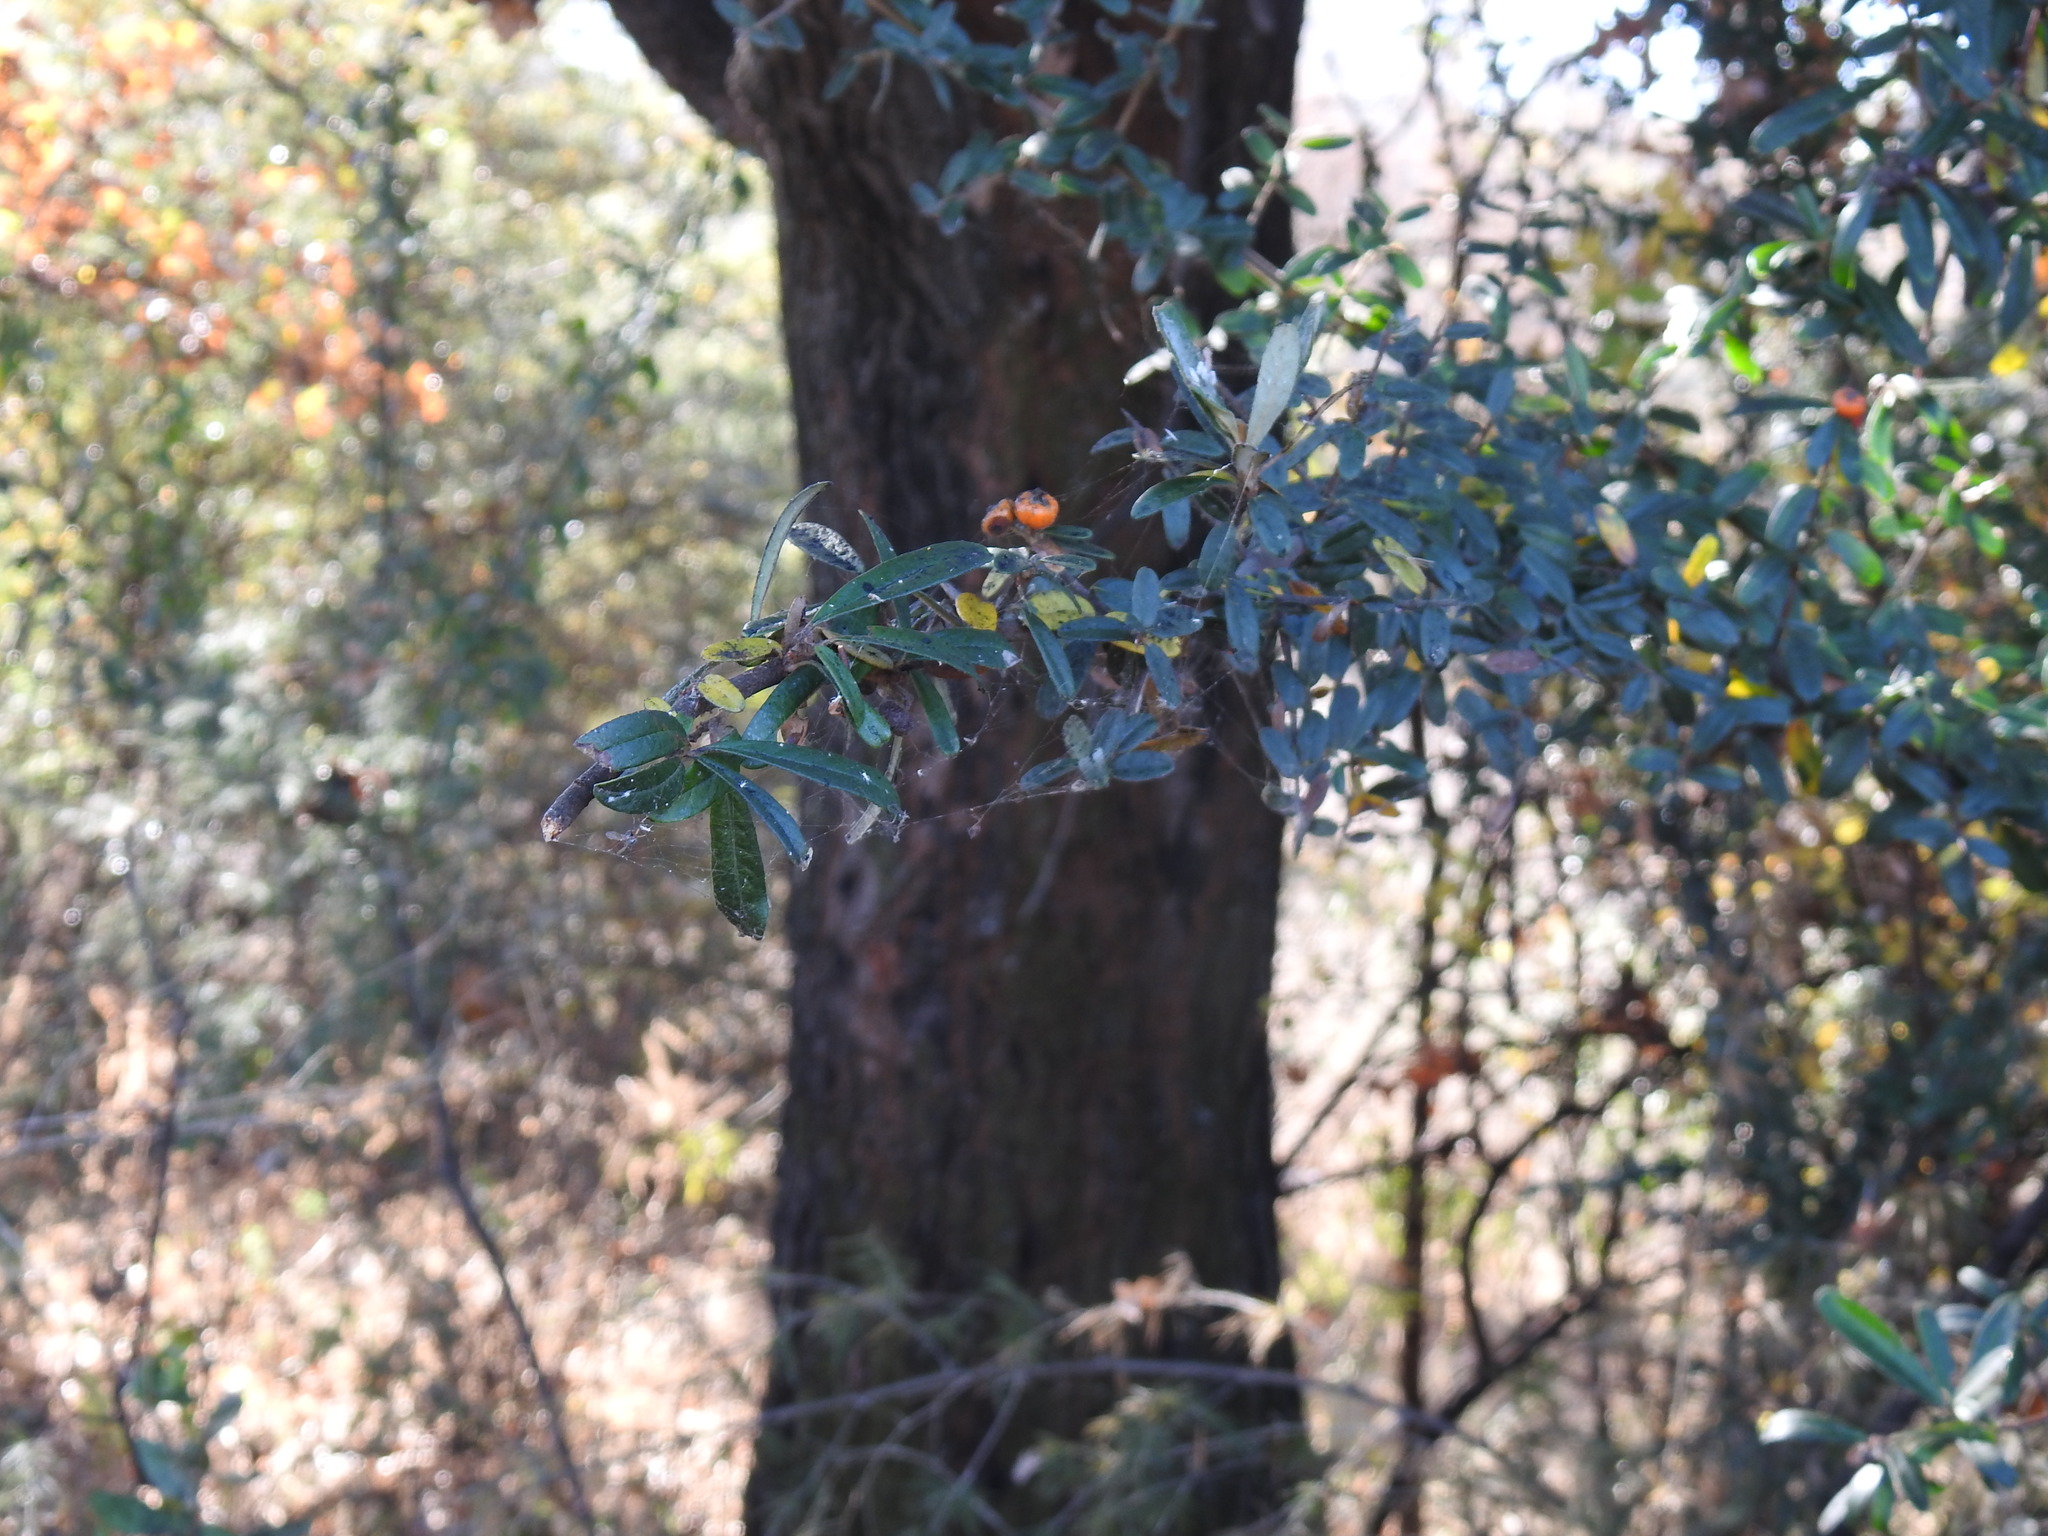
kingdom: Plantae
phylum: Tracheophyta
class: Magnoliopsida
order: Rosales
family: Rosaceae
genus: Pyracantha
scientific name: Pyracantha angustifolia
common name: Narrowleaf firethorn
